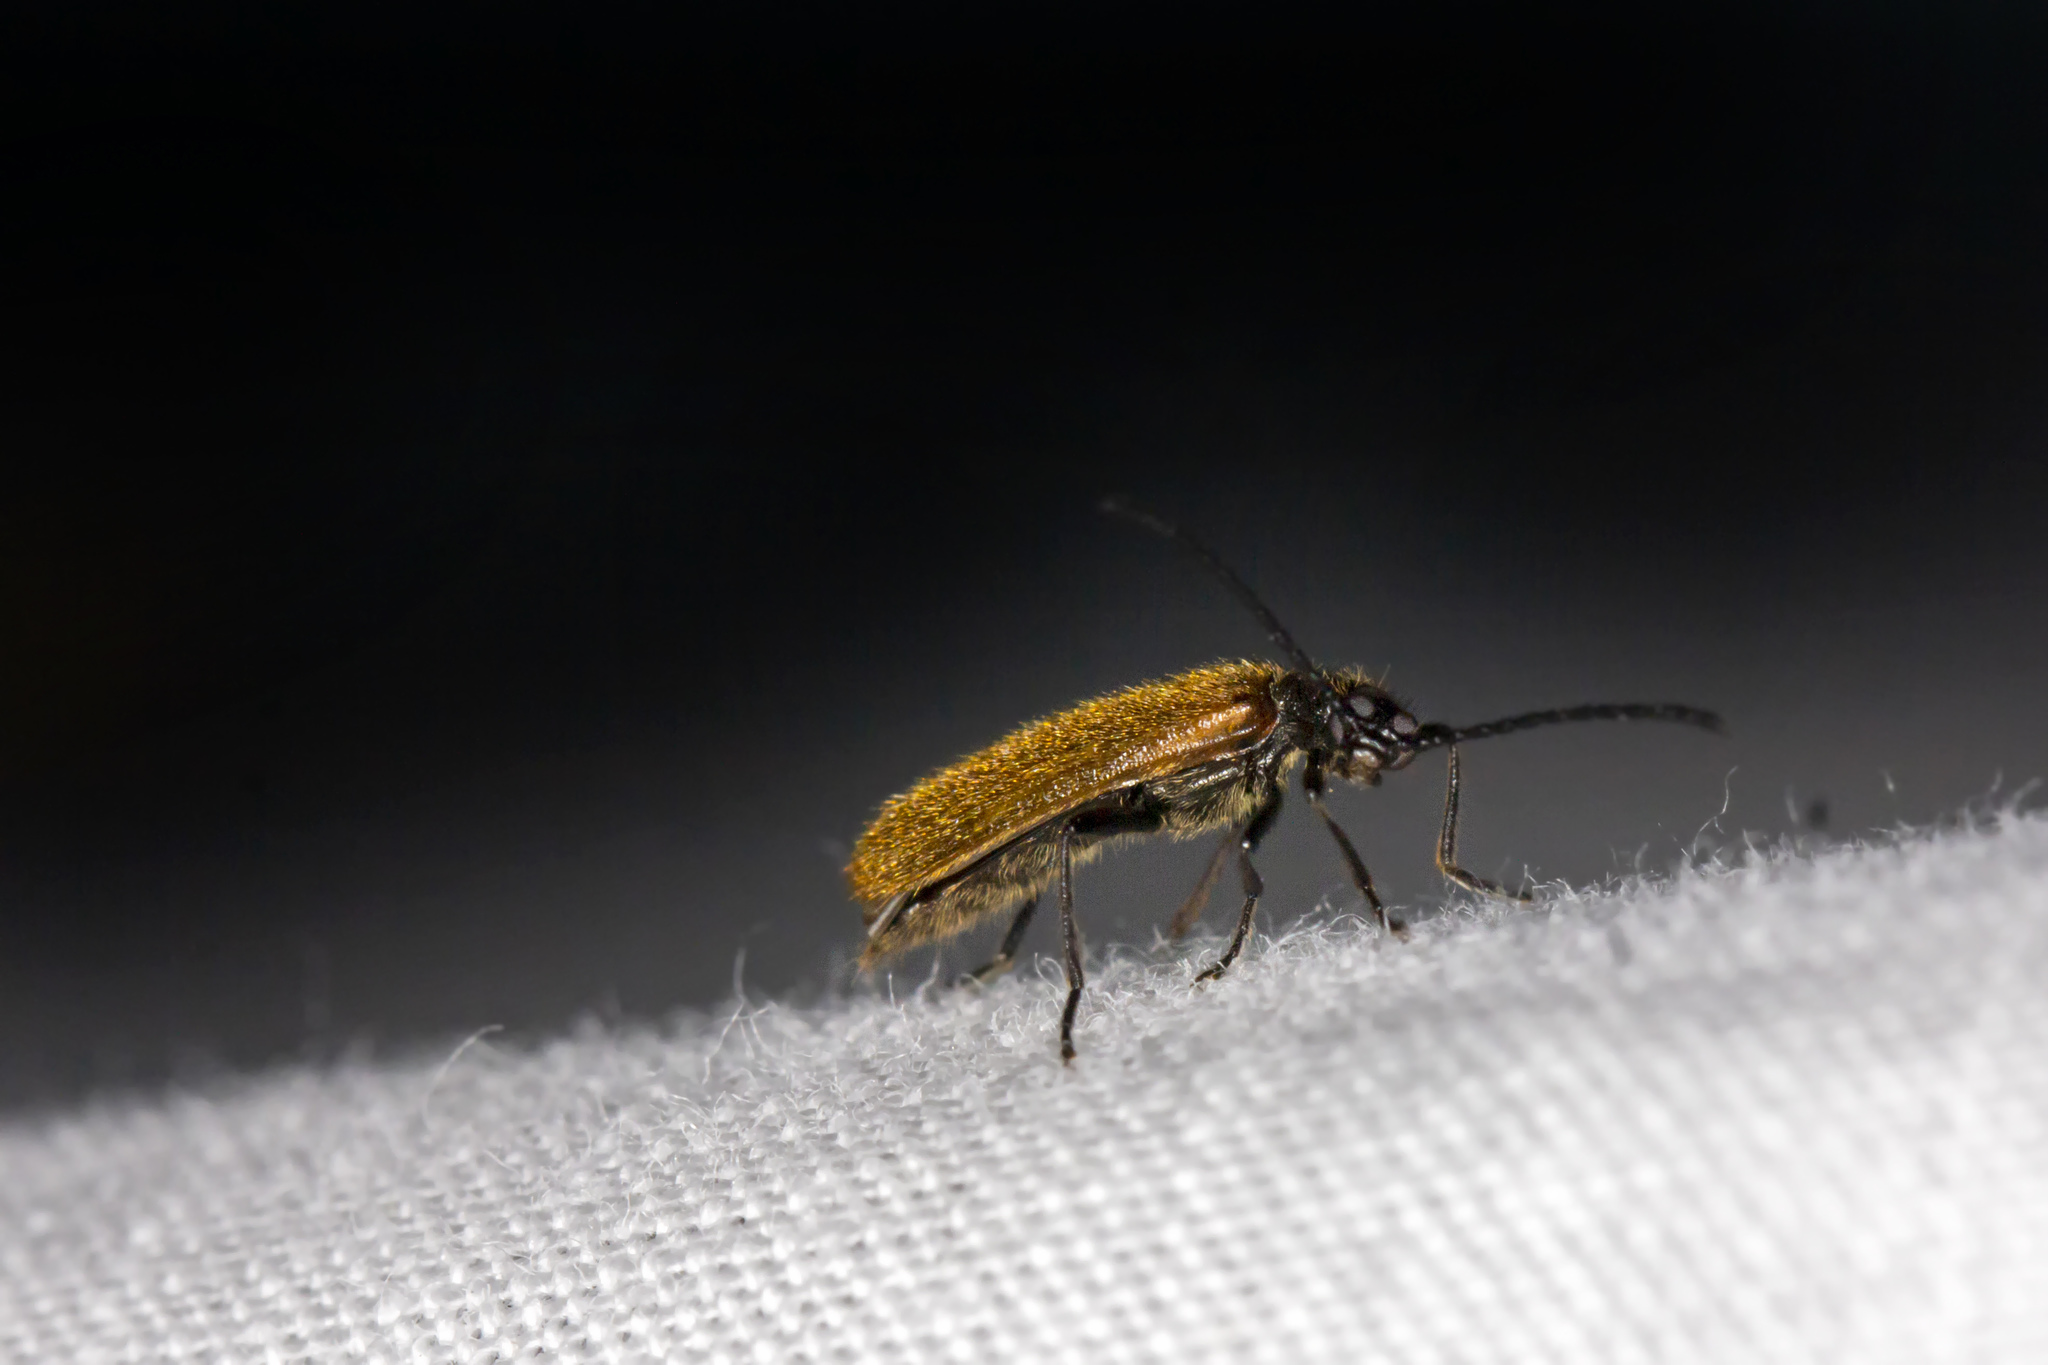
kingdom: Animalia
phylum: Arthropoda
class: Insecta
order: Coleoptera
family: Tenebrionidae
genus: Lagria
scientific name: Lagria hirta
